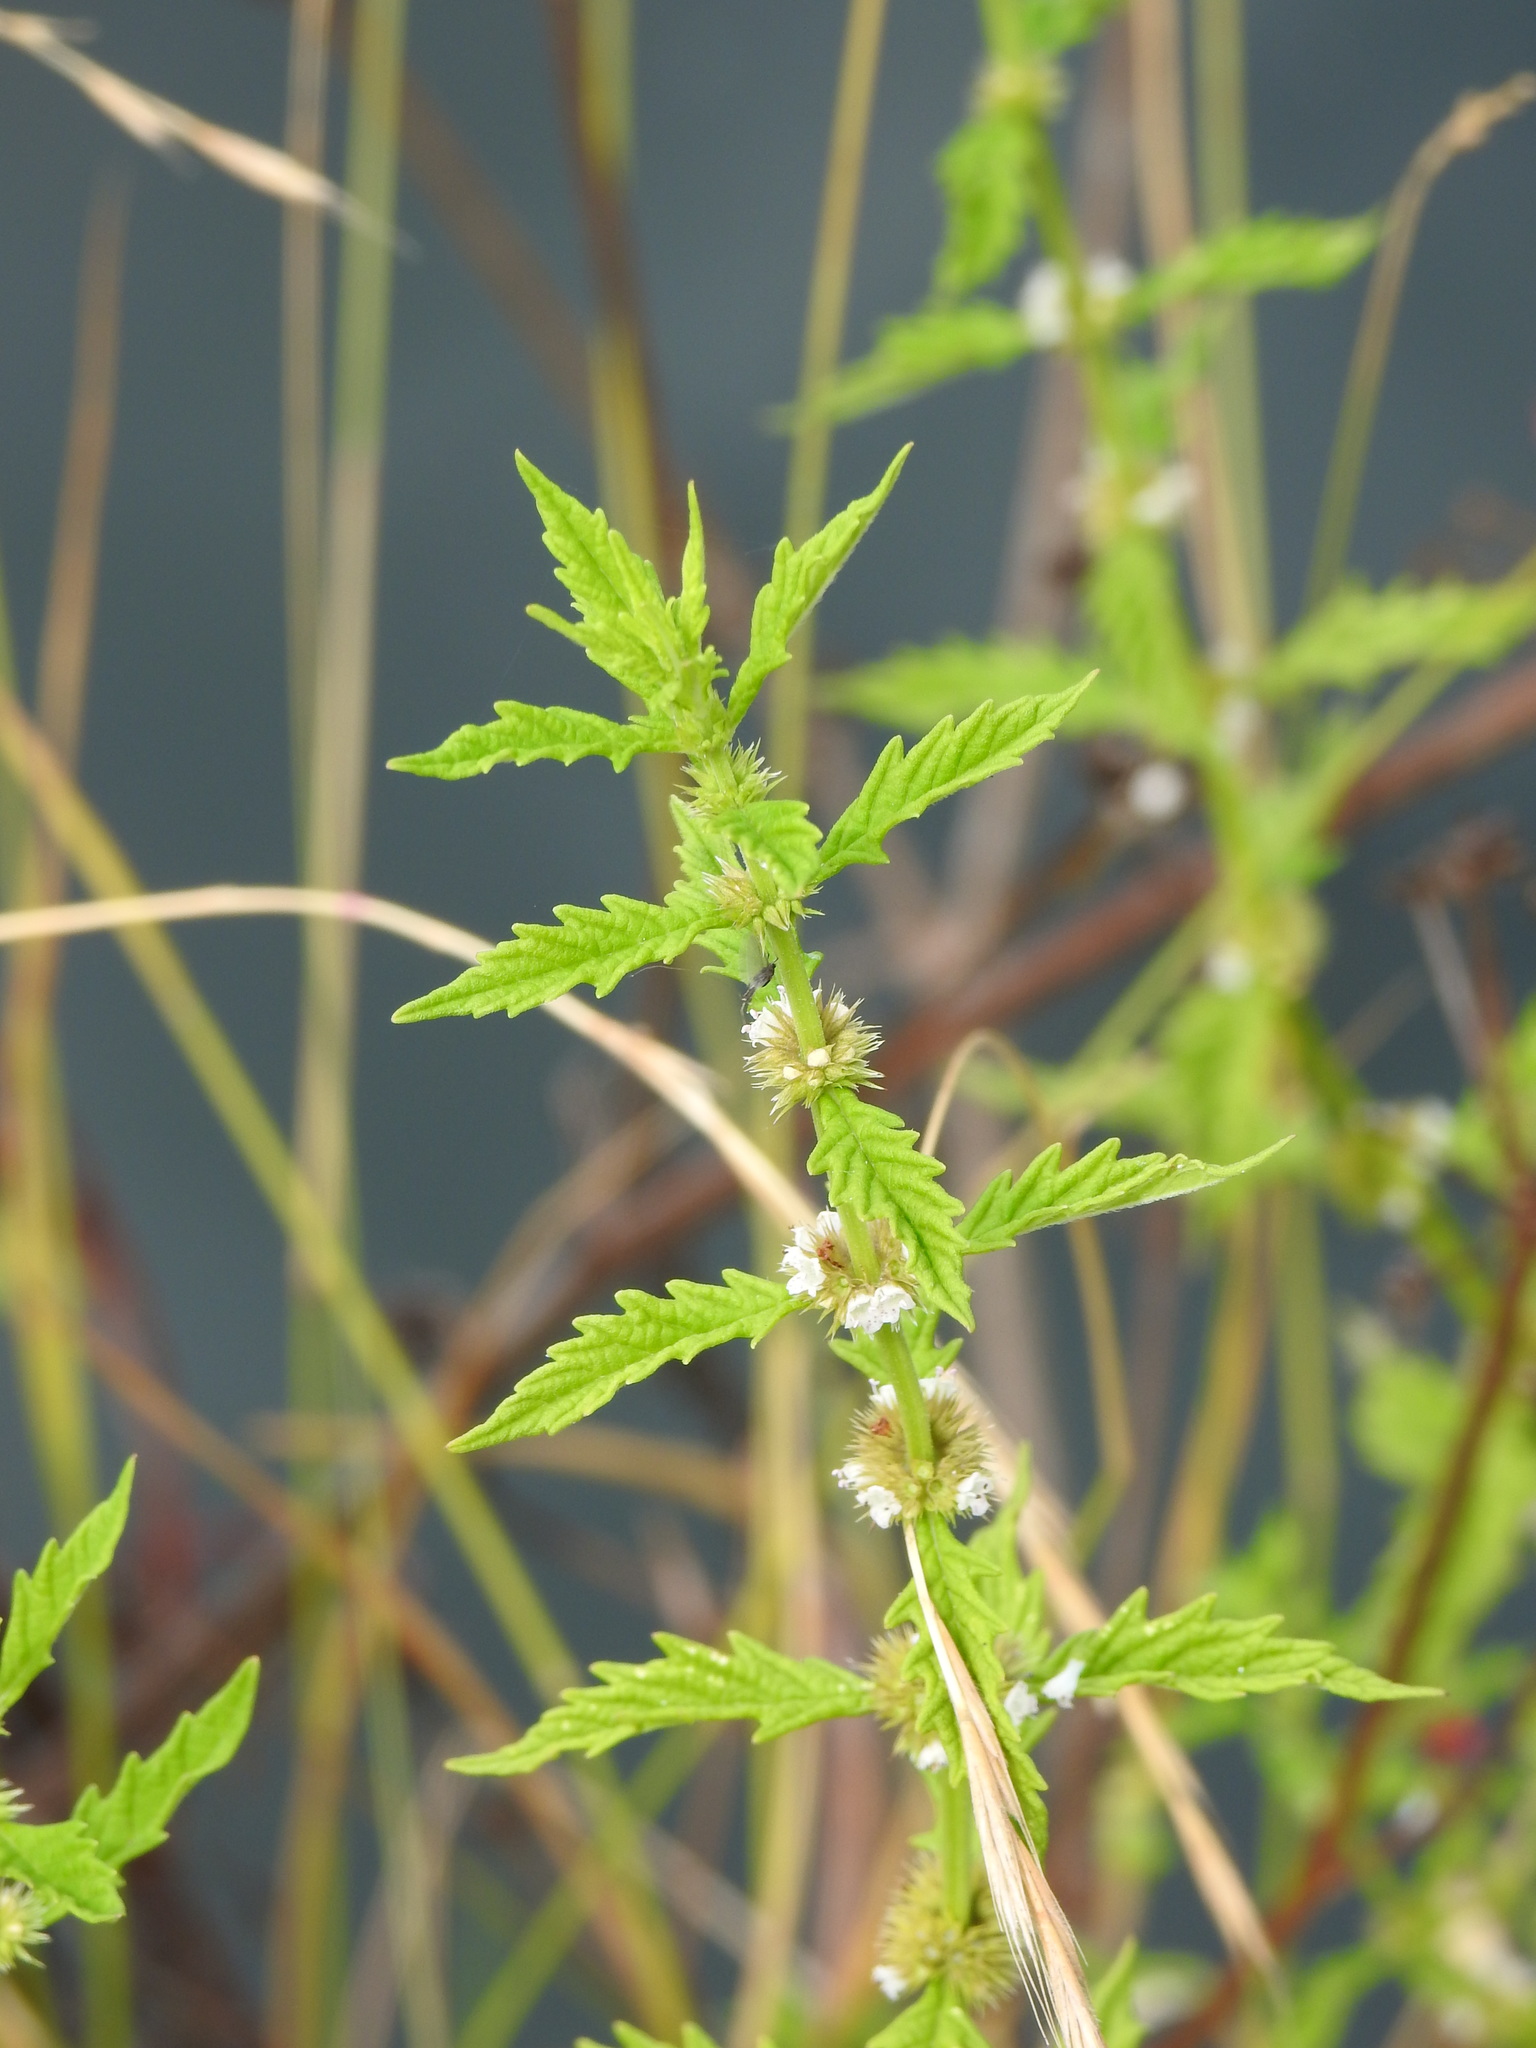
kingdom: Plantae
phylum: Tracheophyta
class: Magnoliopsida
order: Lamiales
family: Lamiaceae
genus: Lycopus
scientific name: Lycopus europaeus
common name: European bugleweed
